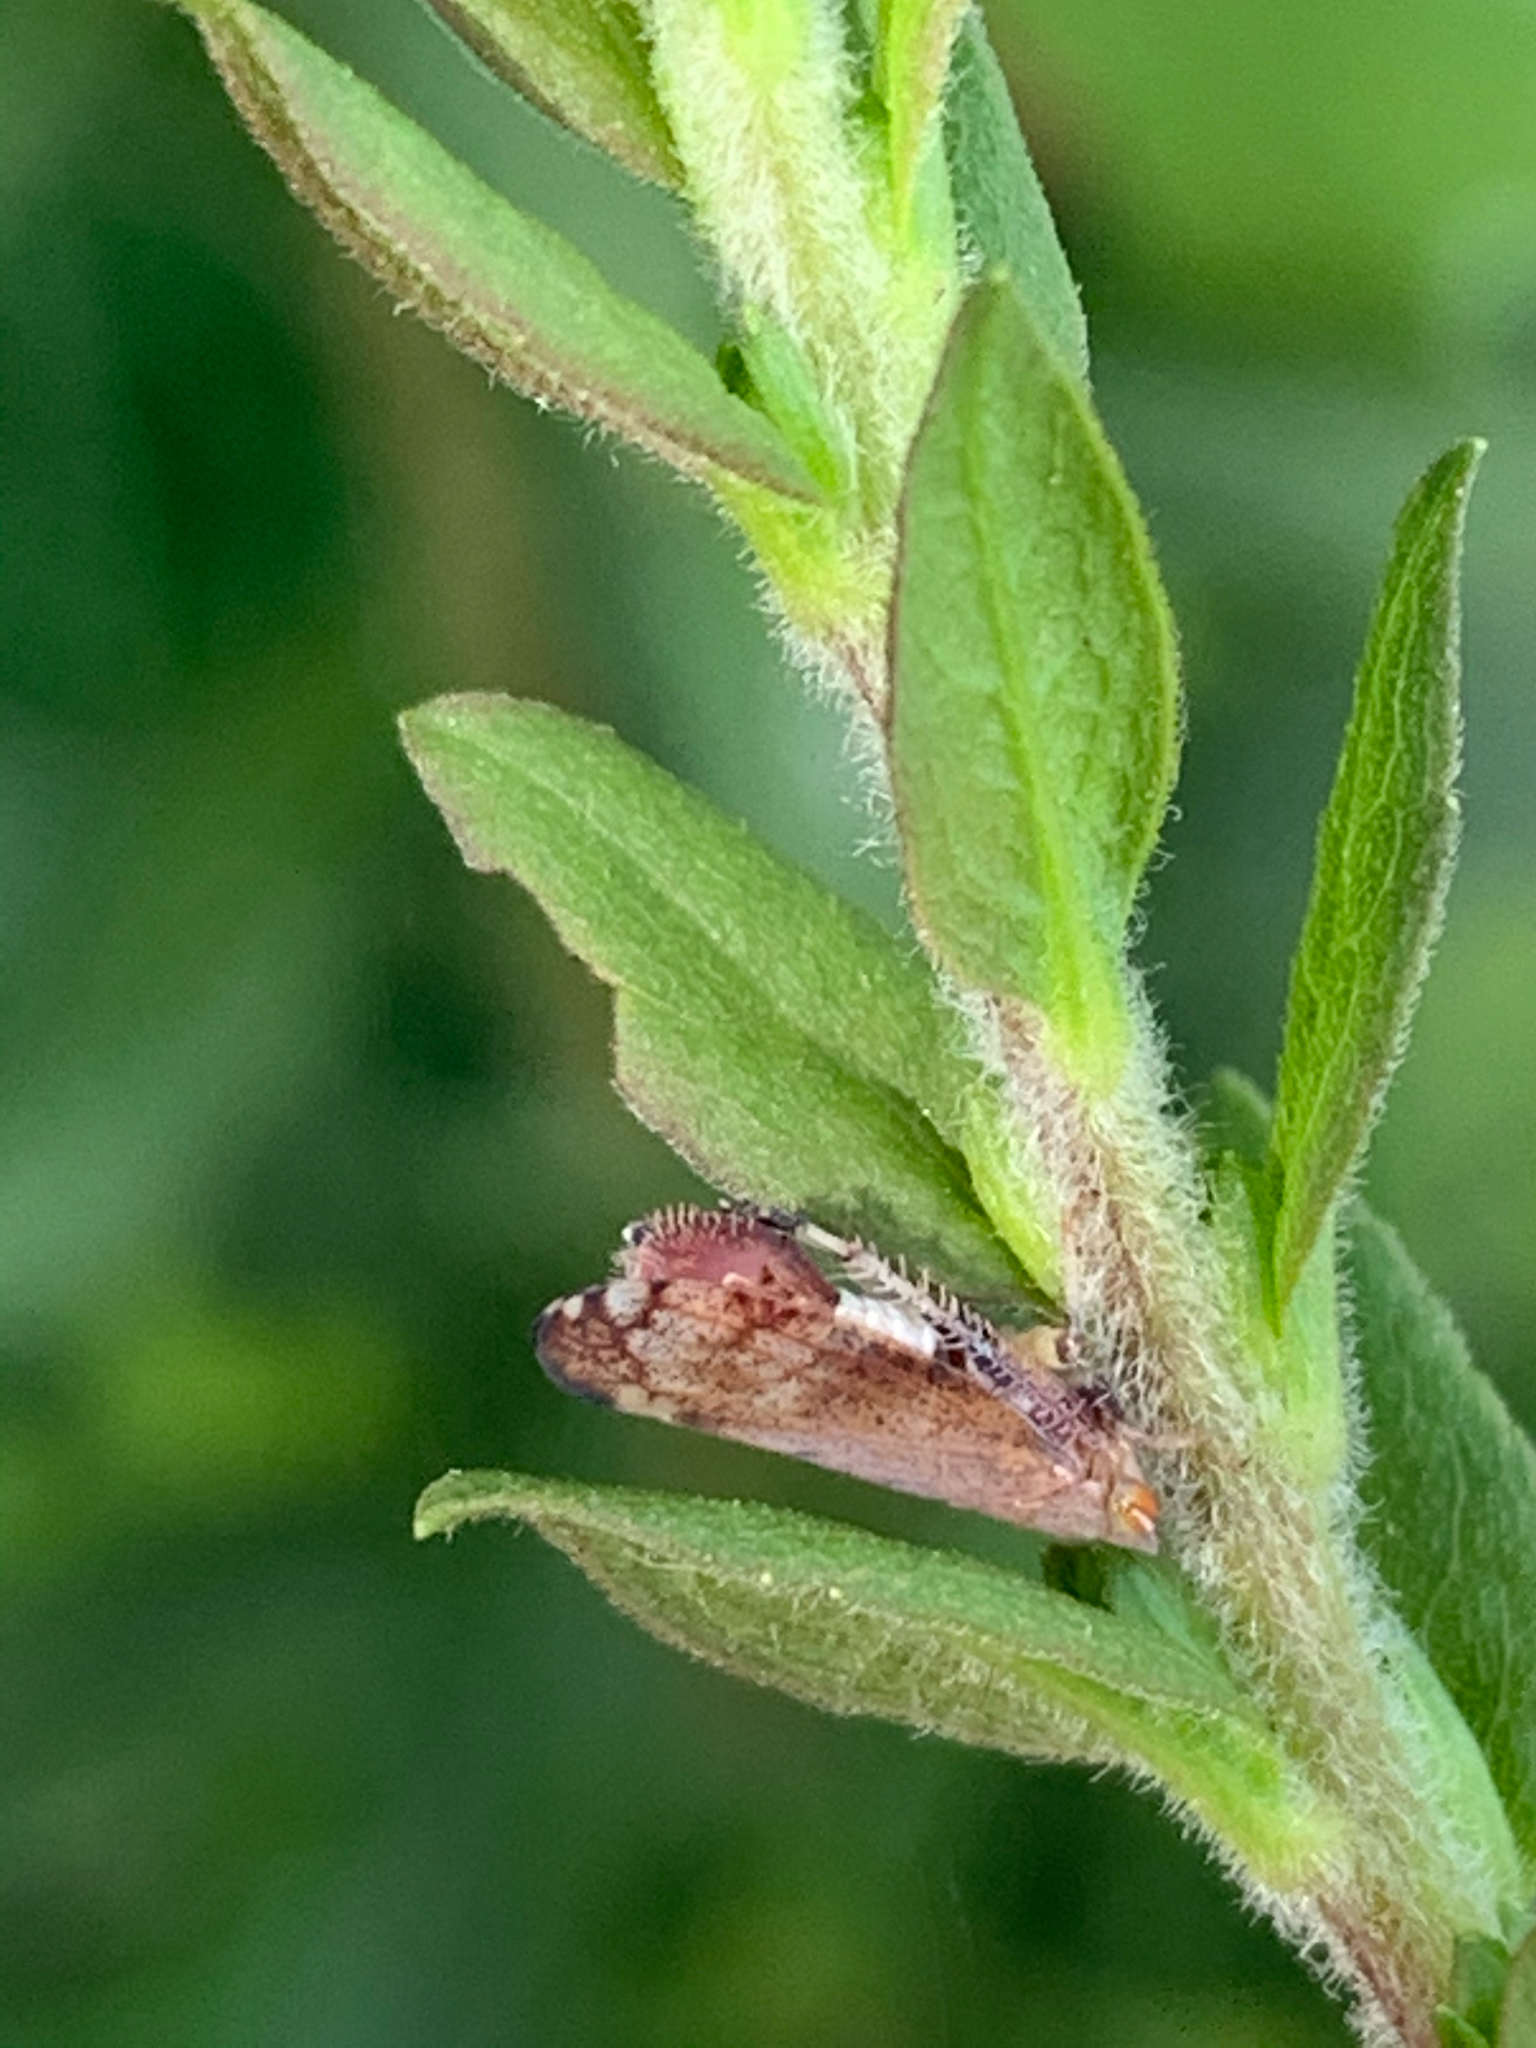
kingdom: Animalia
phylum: Arthropoda
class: Insecta
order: Hemiptera
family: Cicadellidae
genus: Fieberiella
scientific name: Fieberiella florii
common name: Flor’s leafhopper
